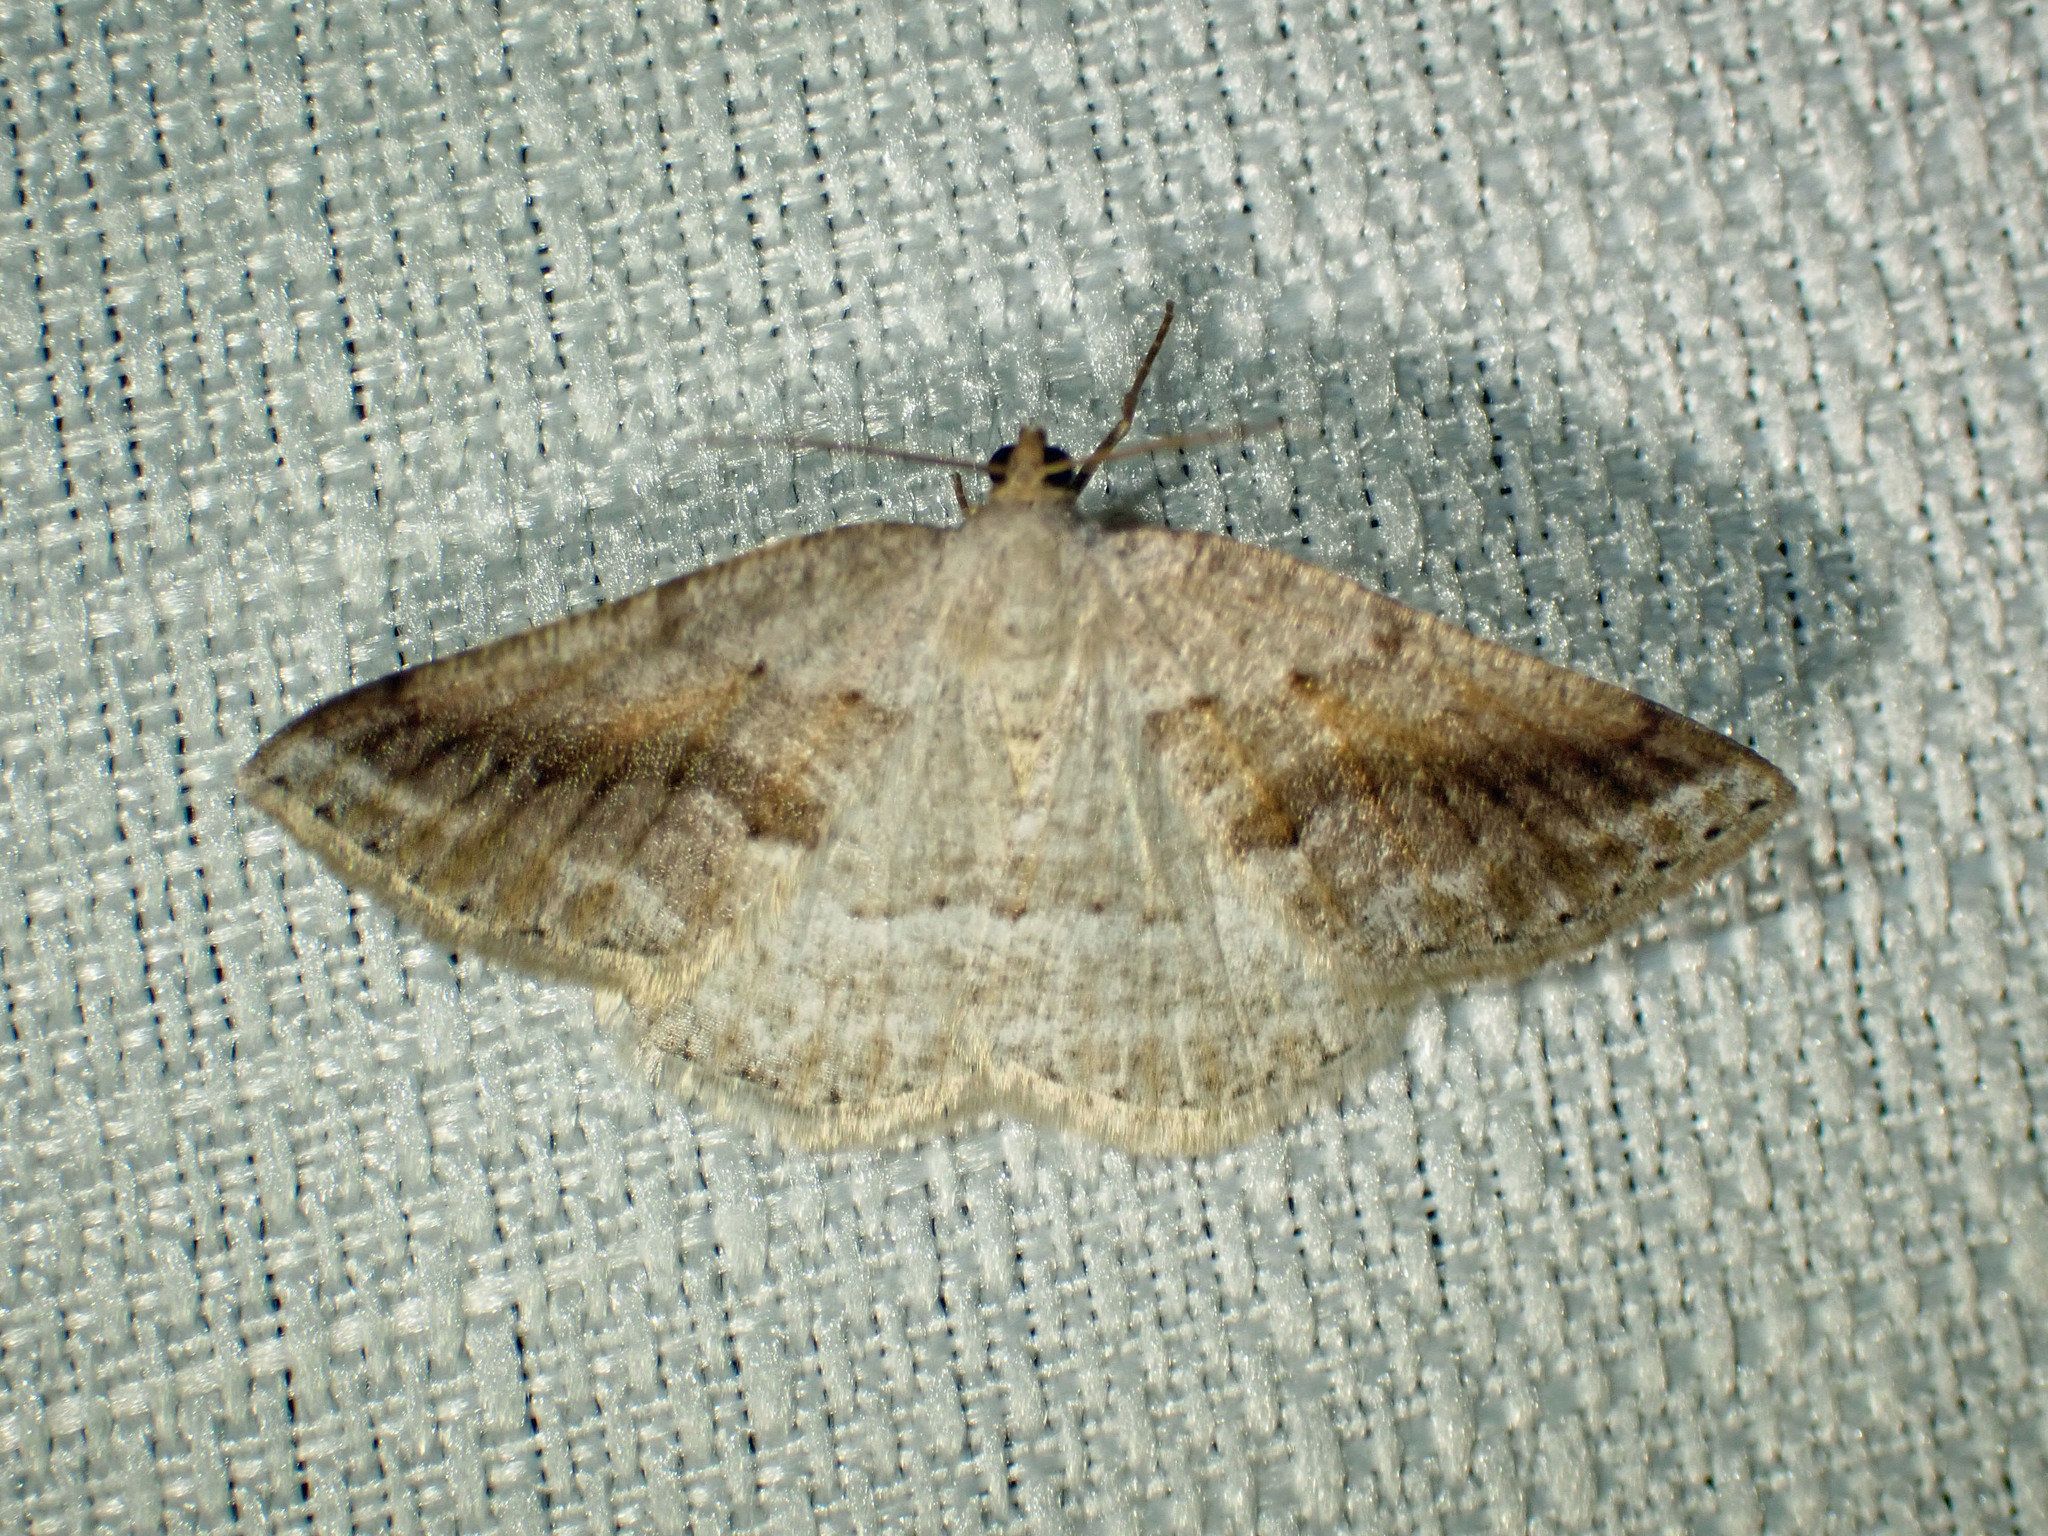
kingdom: Animalia
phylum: Arthropoda
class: Insecta
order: Lepidoptera
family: Geometridae
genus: Tacparia
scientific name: Tacparia detersata
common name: Pale alder moth
